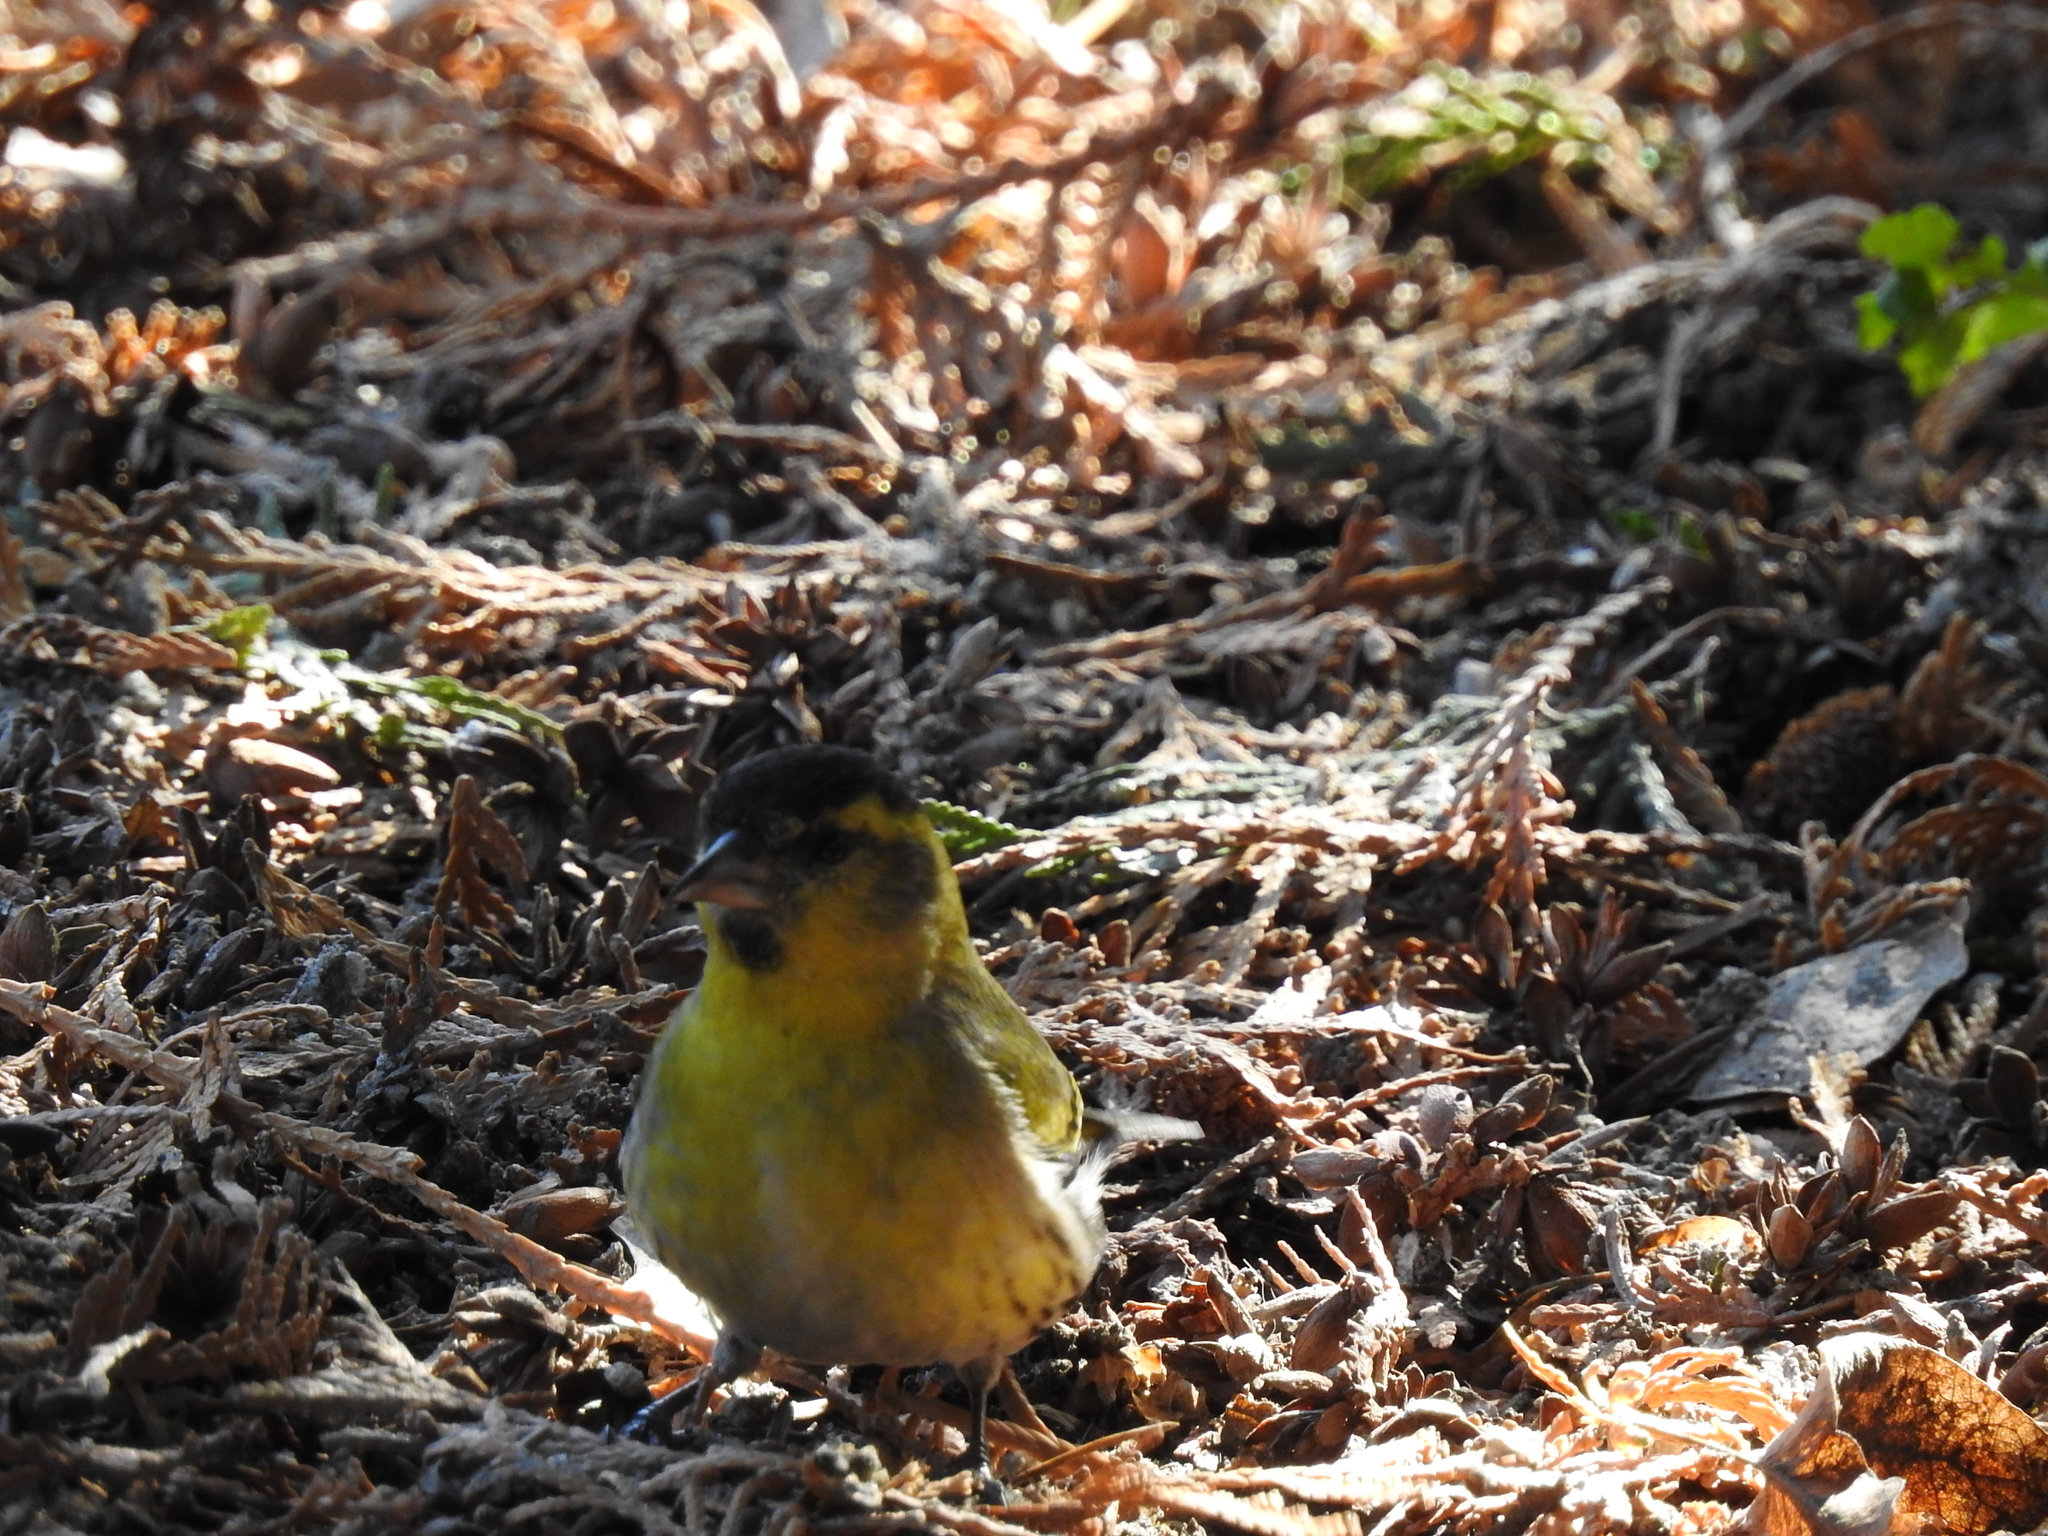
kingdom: Animalia
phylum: Chordata
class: Aves
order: Passeriformes
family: Fringillidae
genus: Spinus
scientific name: Spinus spinus
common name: Eurasian siskin
